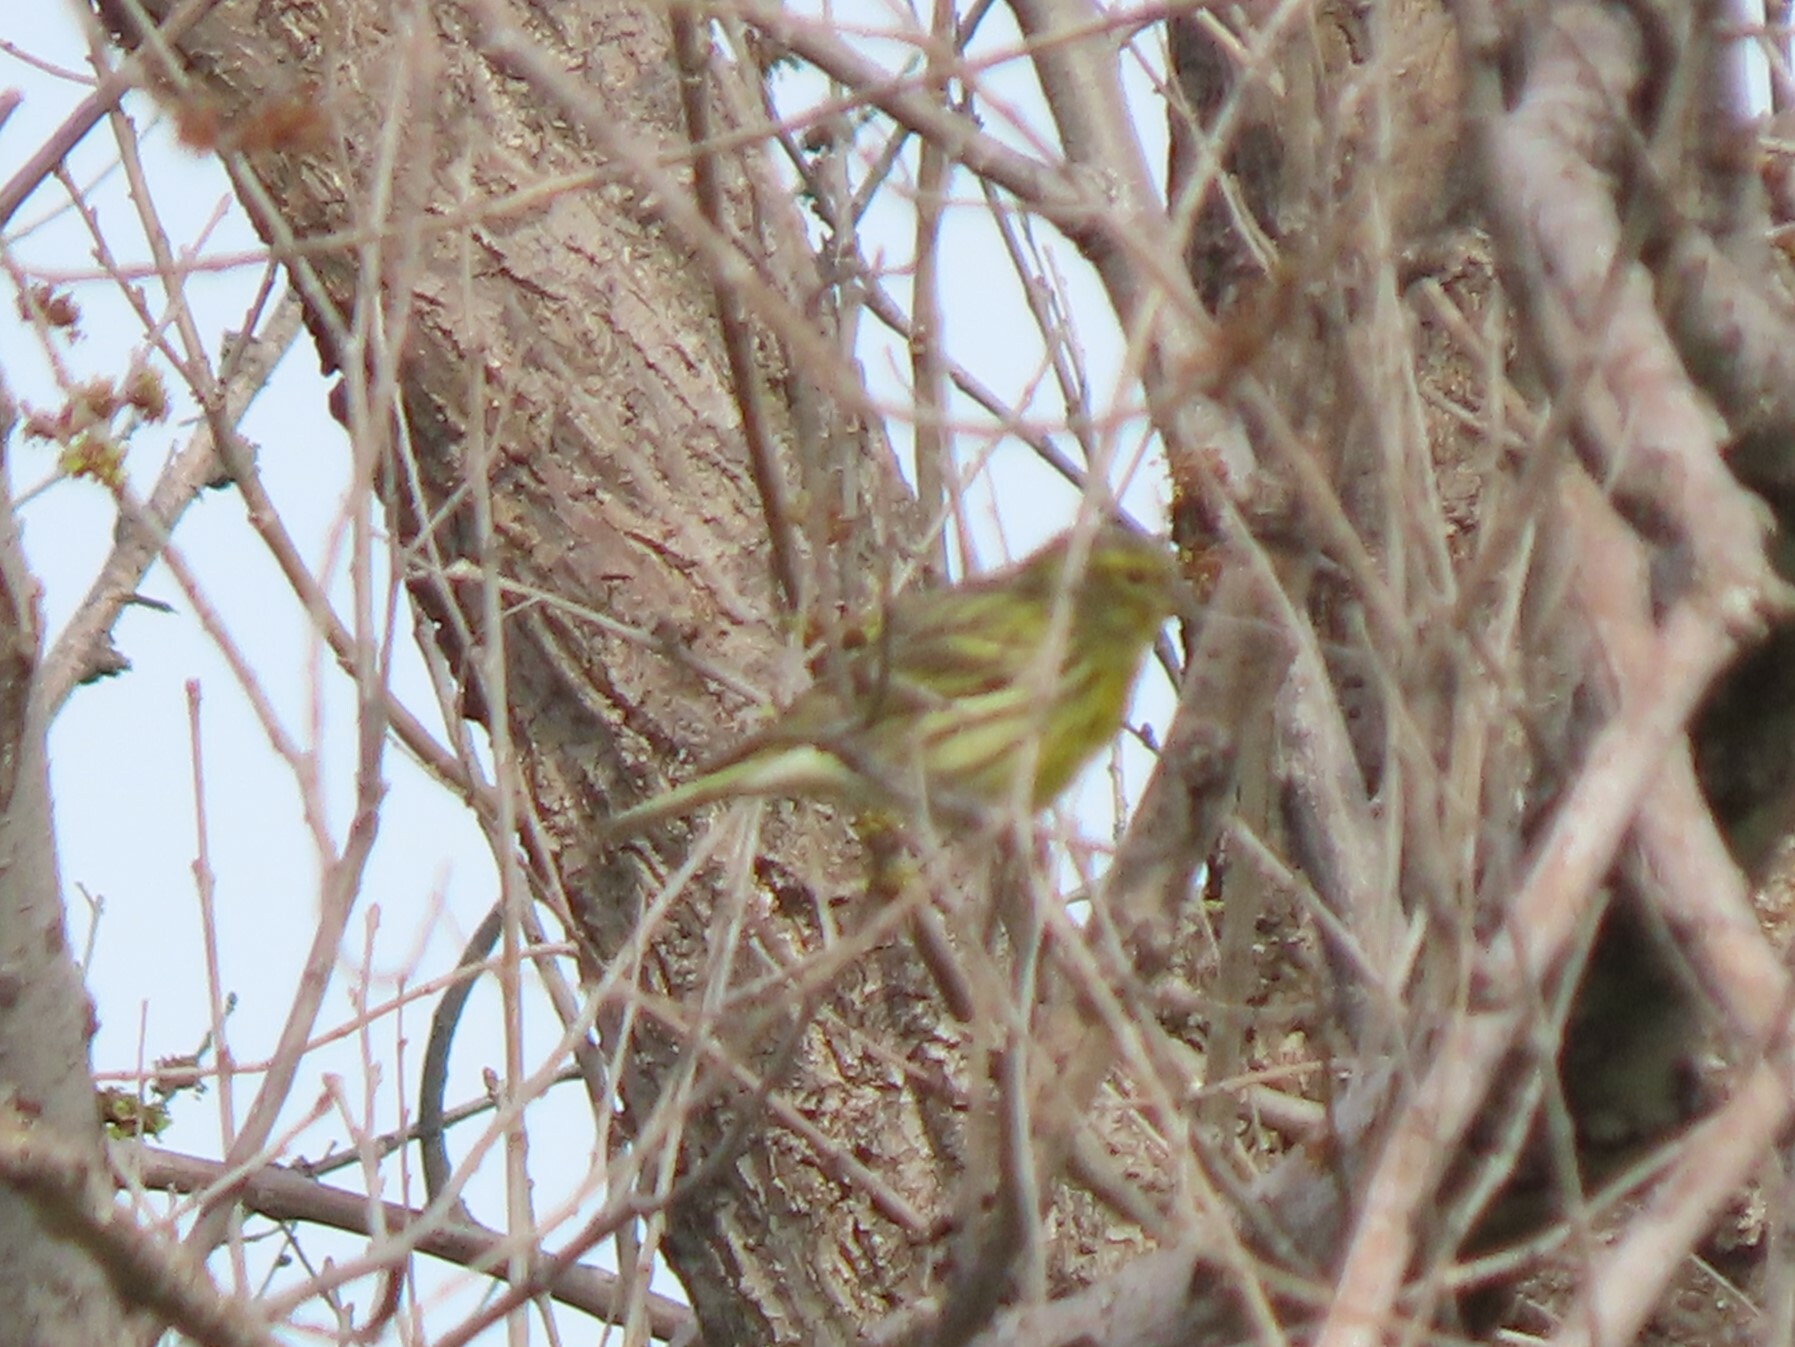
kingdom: Animalia
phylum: Chordata
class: Aves
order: Passeriformes
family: Fringillidae
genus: Serinus
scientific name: Serinus serinus
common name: European serin
